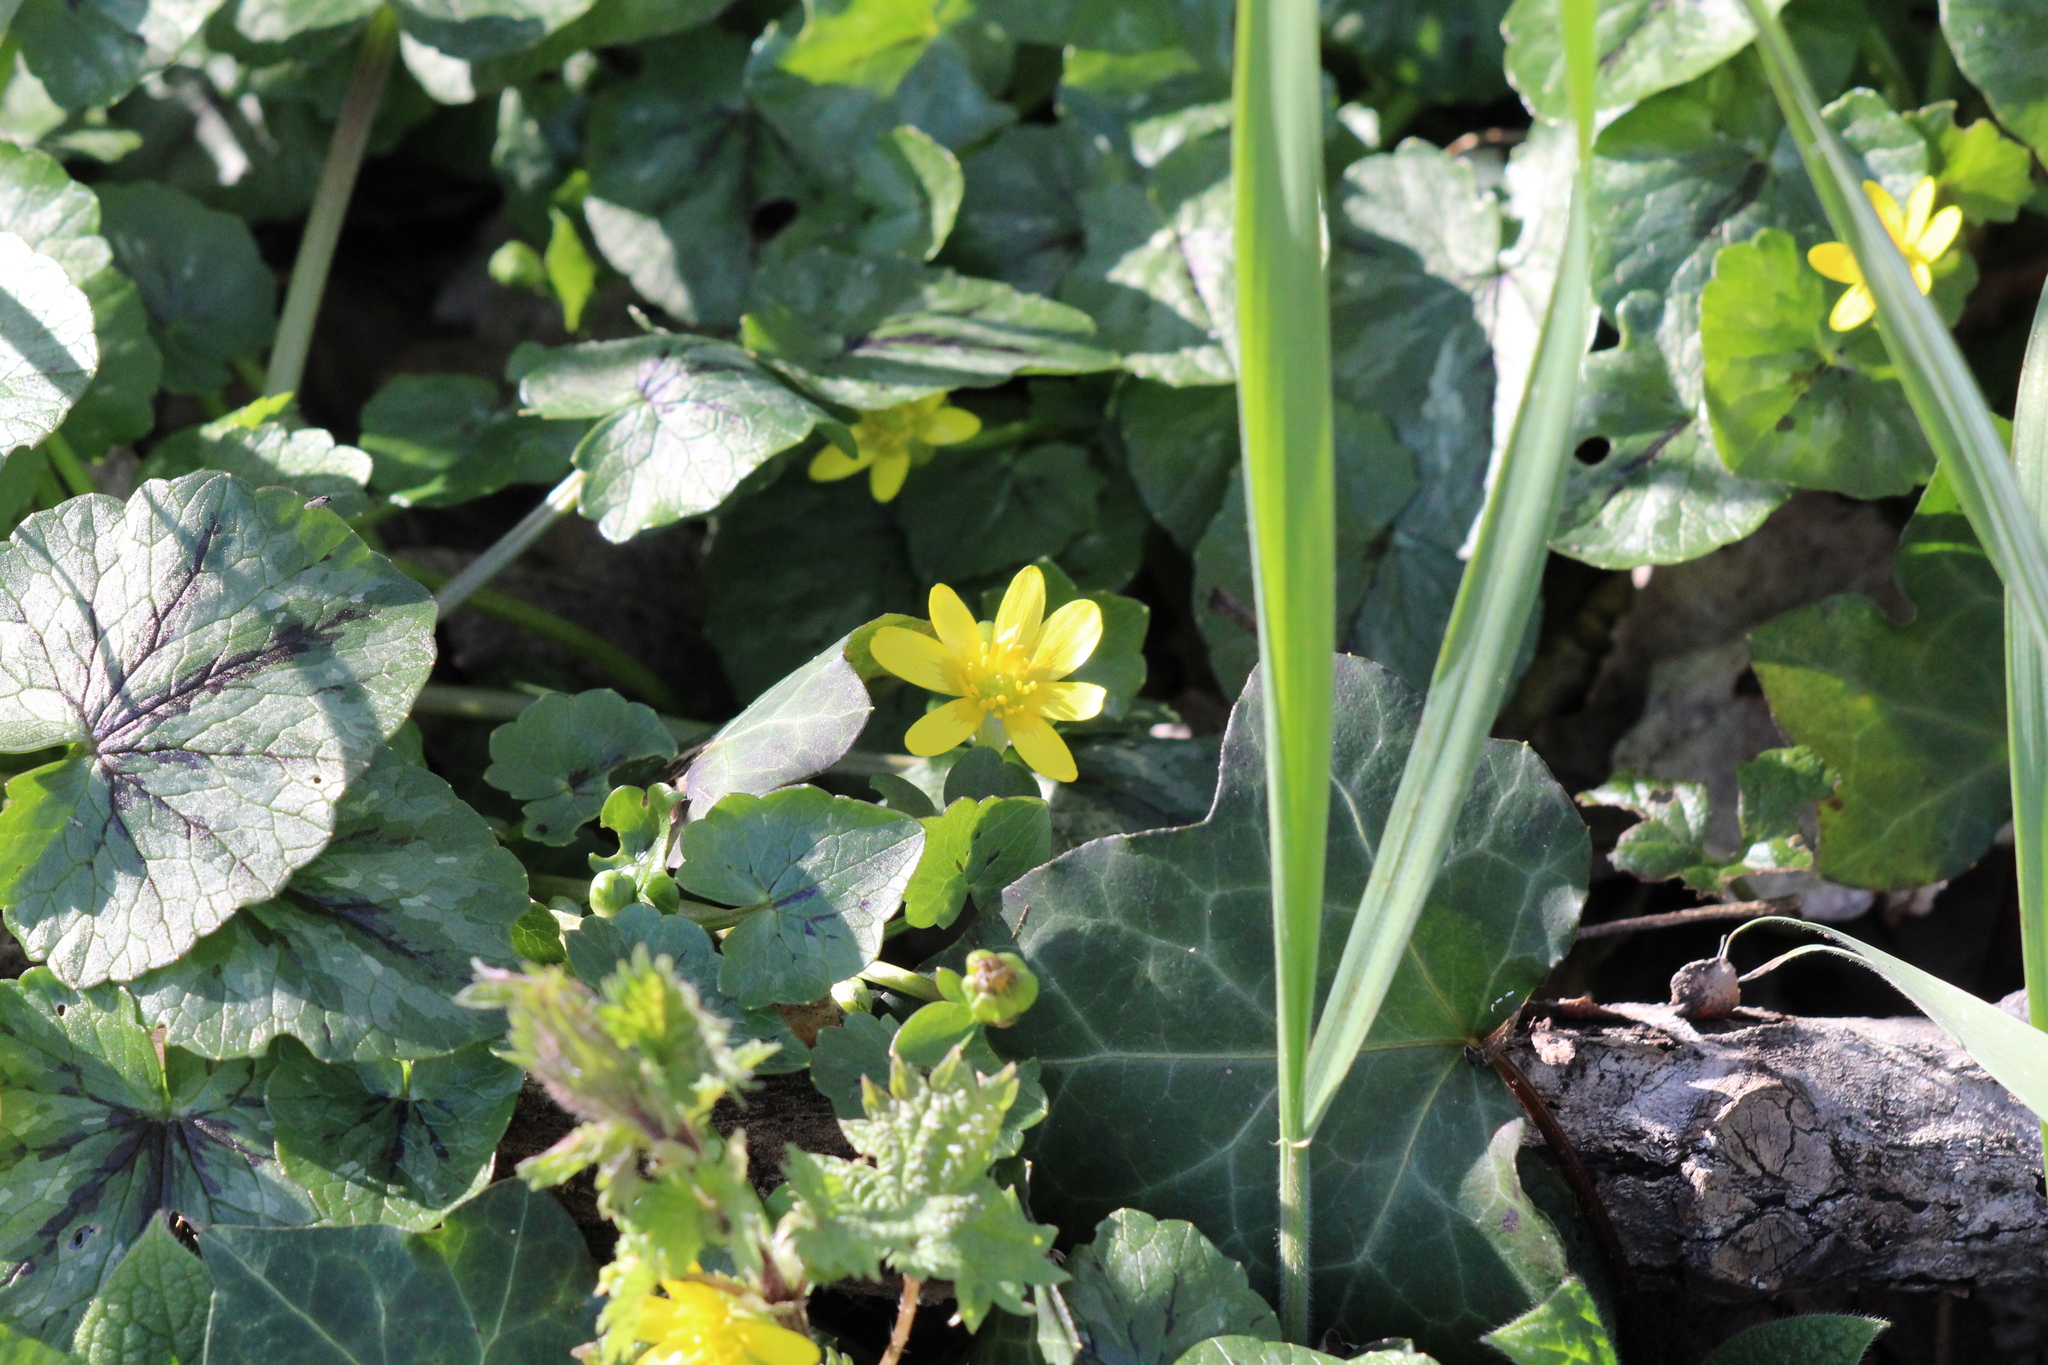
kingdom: Plantae
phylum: Tracheophyta
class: Magnoliopsida
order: Ranunculales
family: Ranunculaceae
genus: Ficaria
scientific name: Ficaria verna
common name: Lesser celandine
